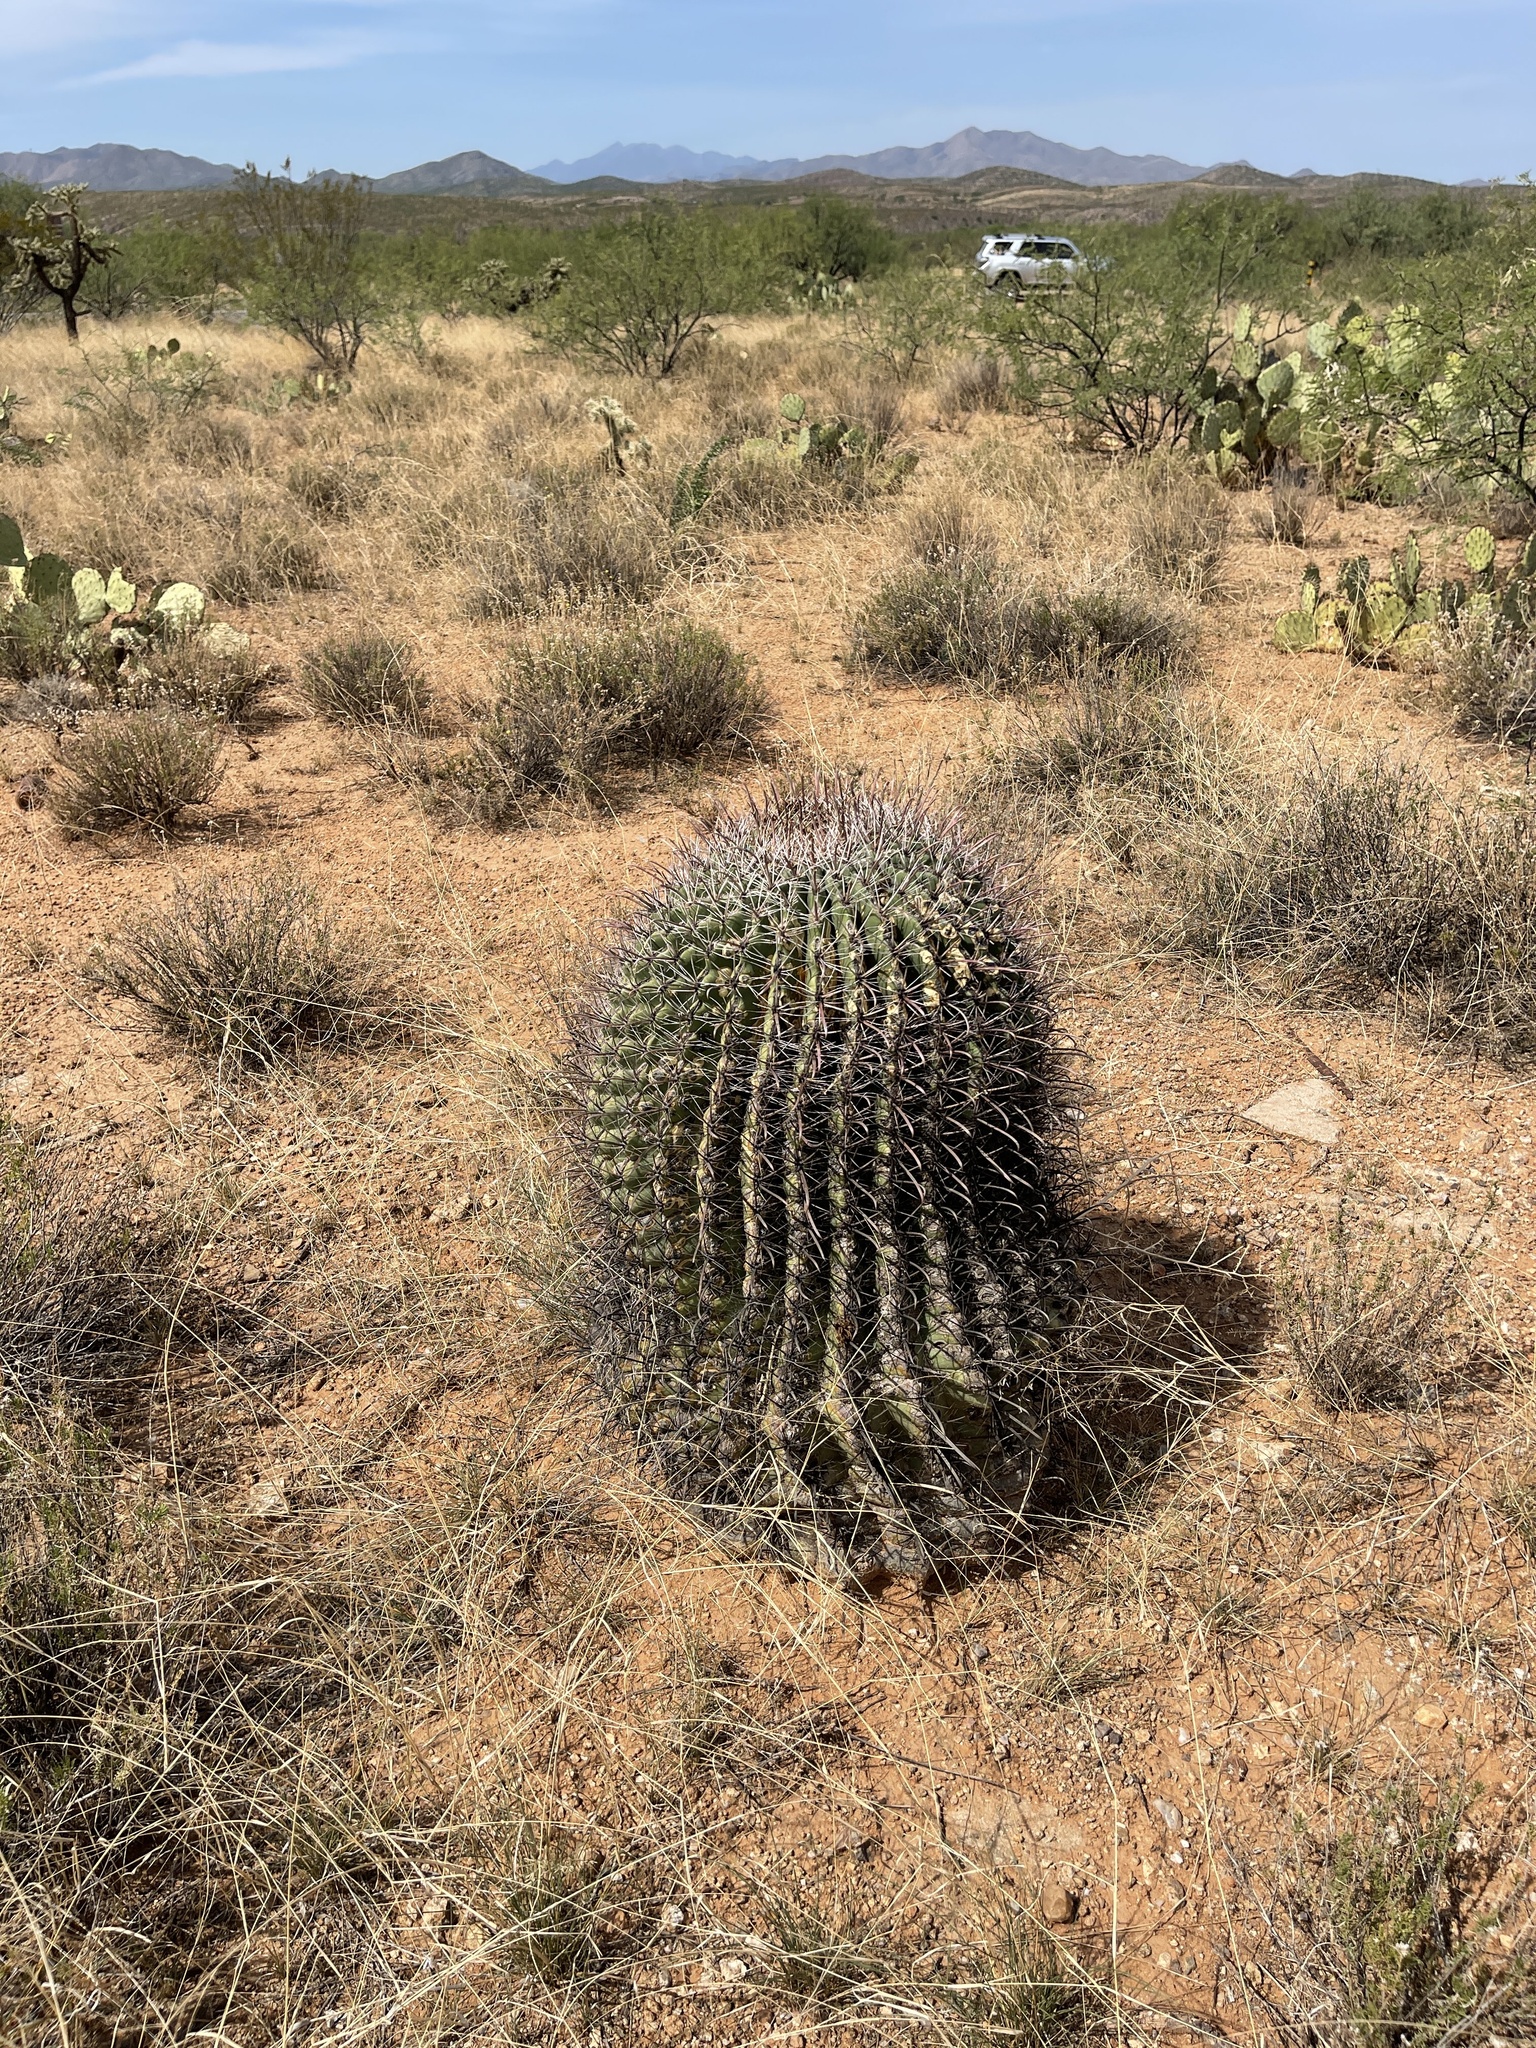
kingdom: Plantae
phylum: Tracheophyta
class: Magnoliopsida
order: Caryophyllales
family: Cactaceae
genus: Ferocactus
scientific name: Ferocactus wislizeni
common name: Candy barrel cactus
